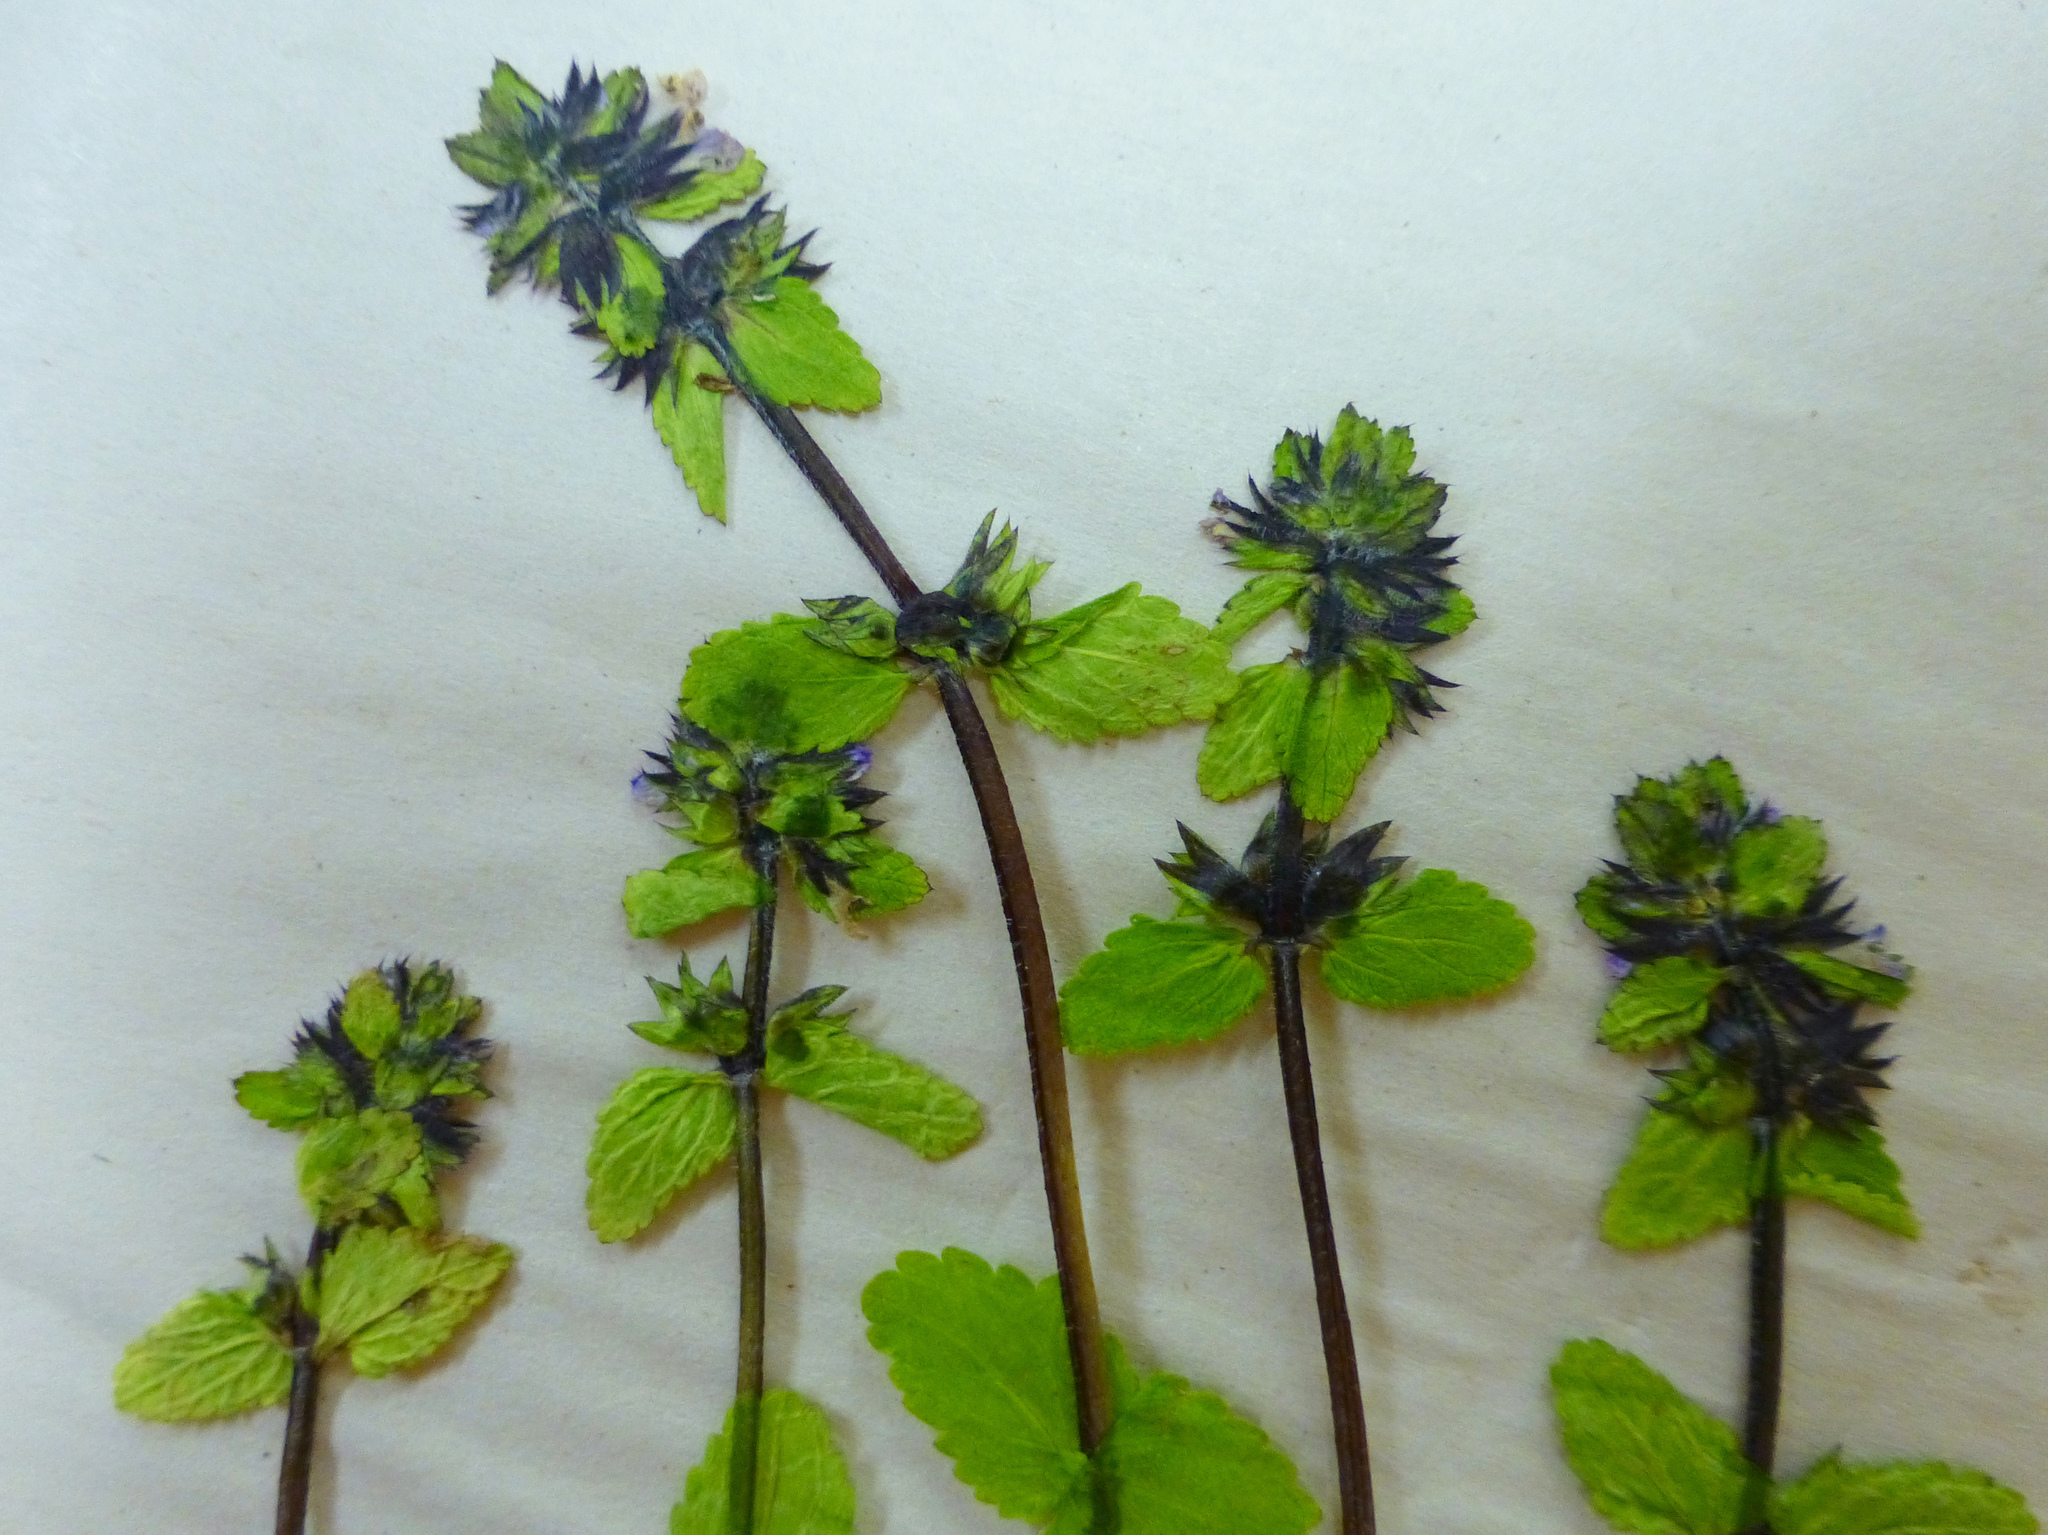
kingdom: Plantae
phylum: Tracheophyta
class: Magnoliopsida
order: Lamiales
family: Lamiaceae
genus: Stachys
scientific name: Stachys arvensis
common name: Field woundwort
